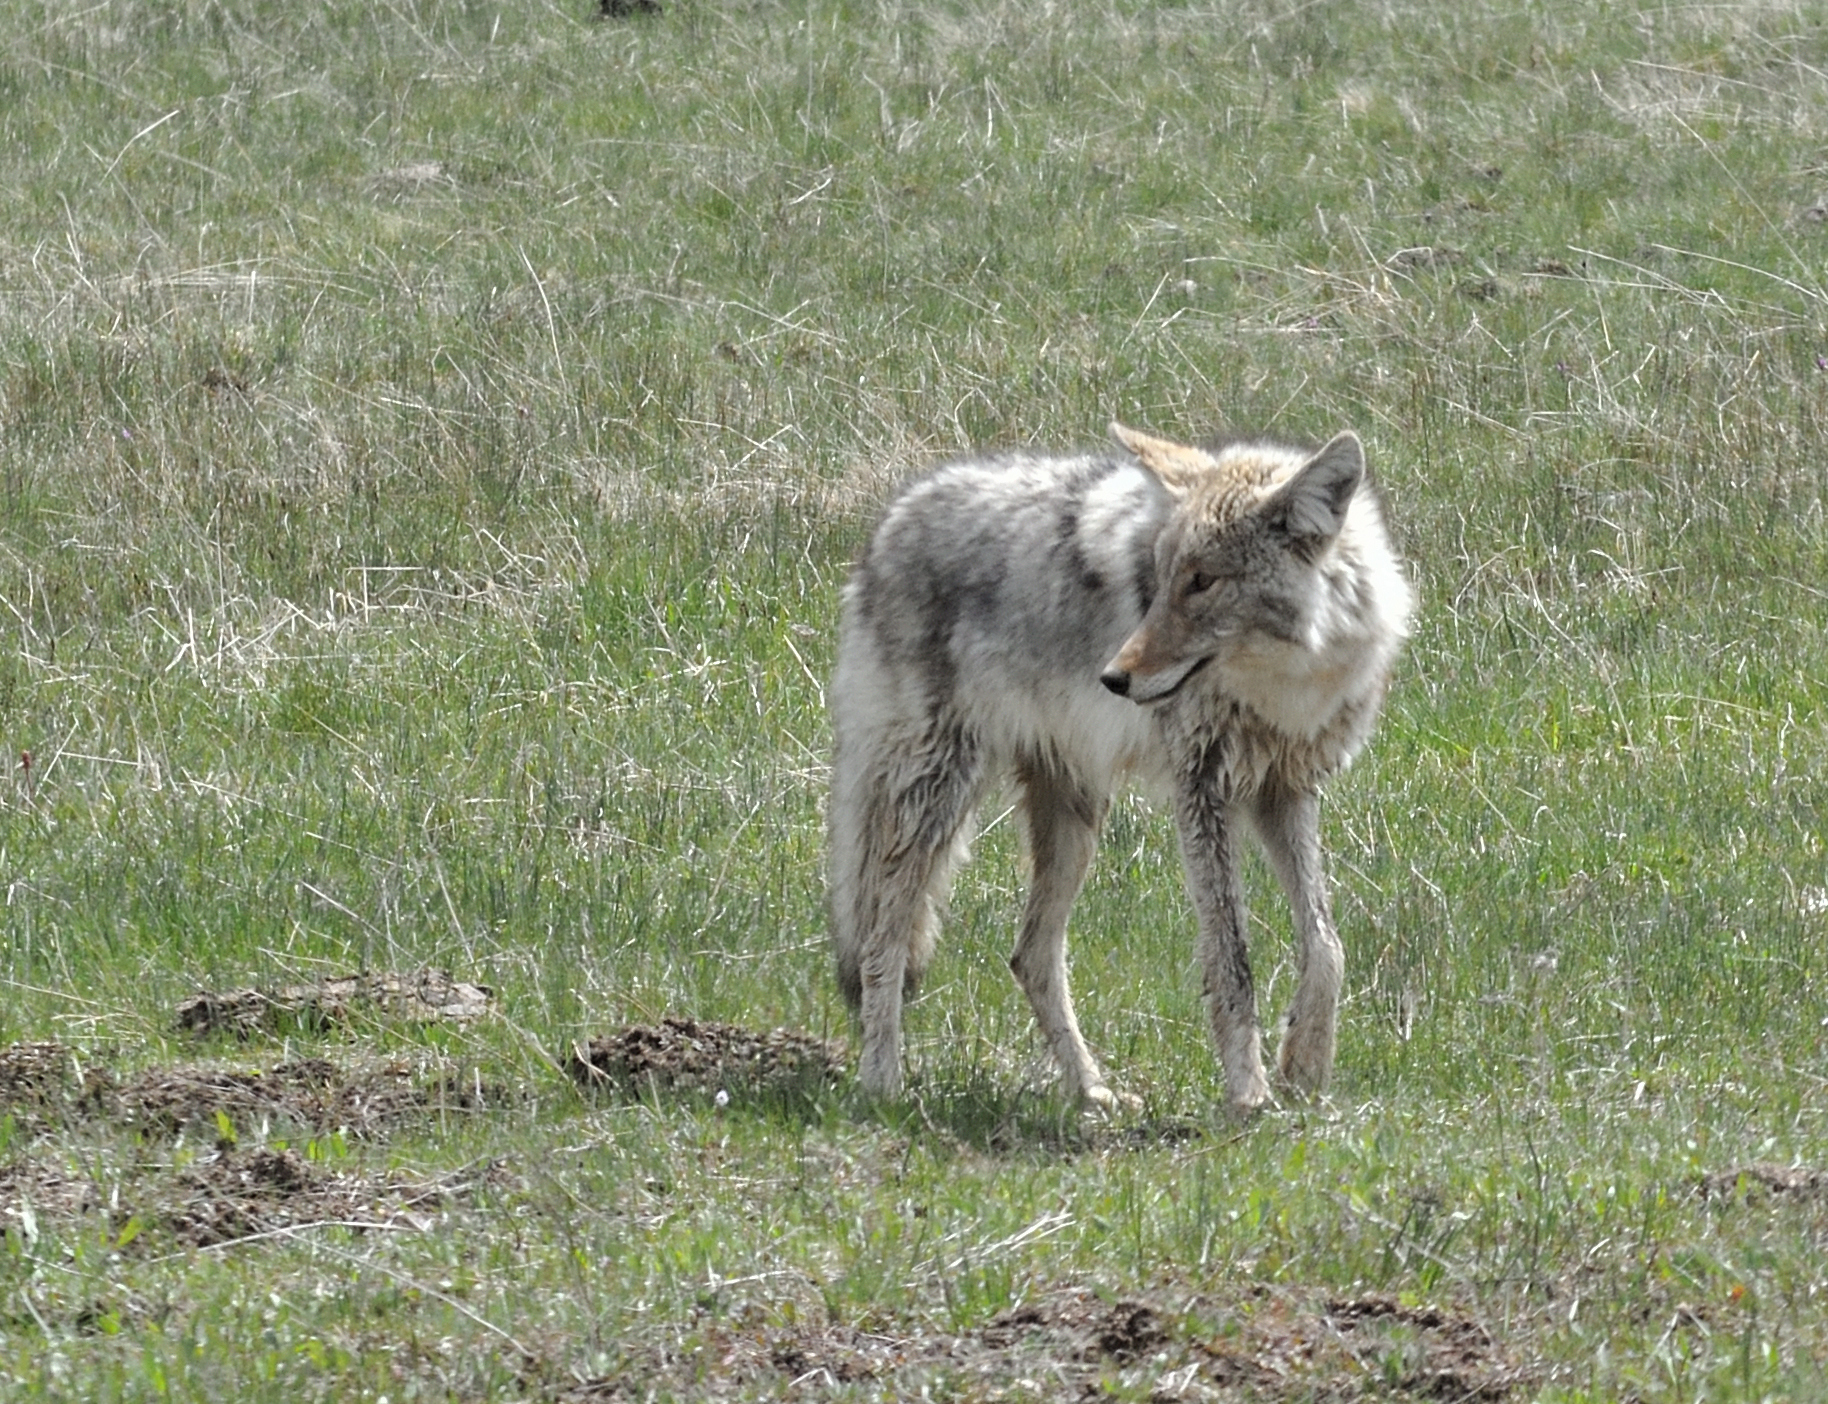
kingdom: Animalia
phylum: Chordata
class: Mammalia
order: Carnivora
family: Canidae
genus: Canis
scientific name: Canis latrans
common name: Coyote
